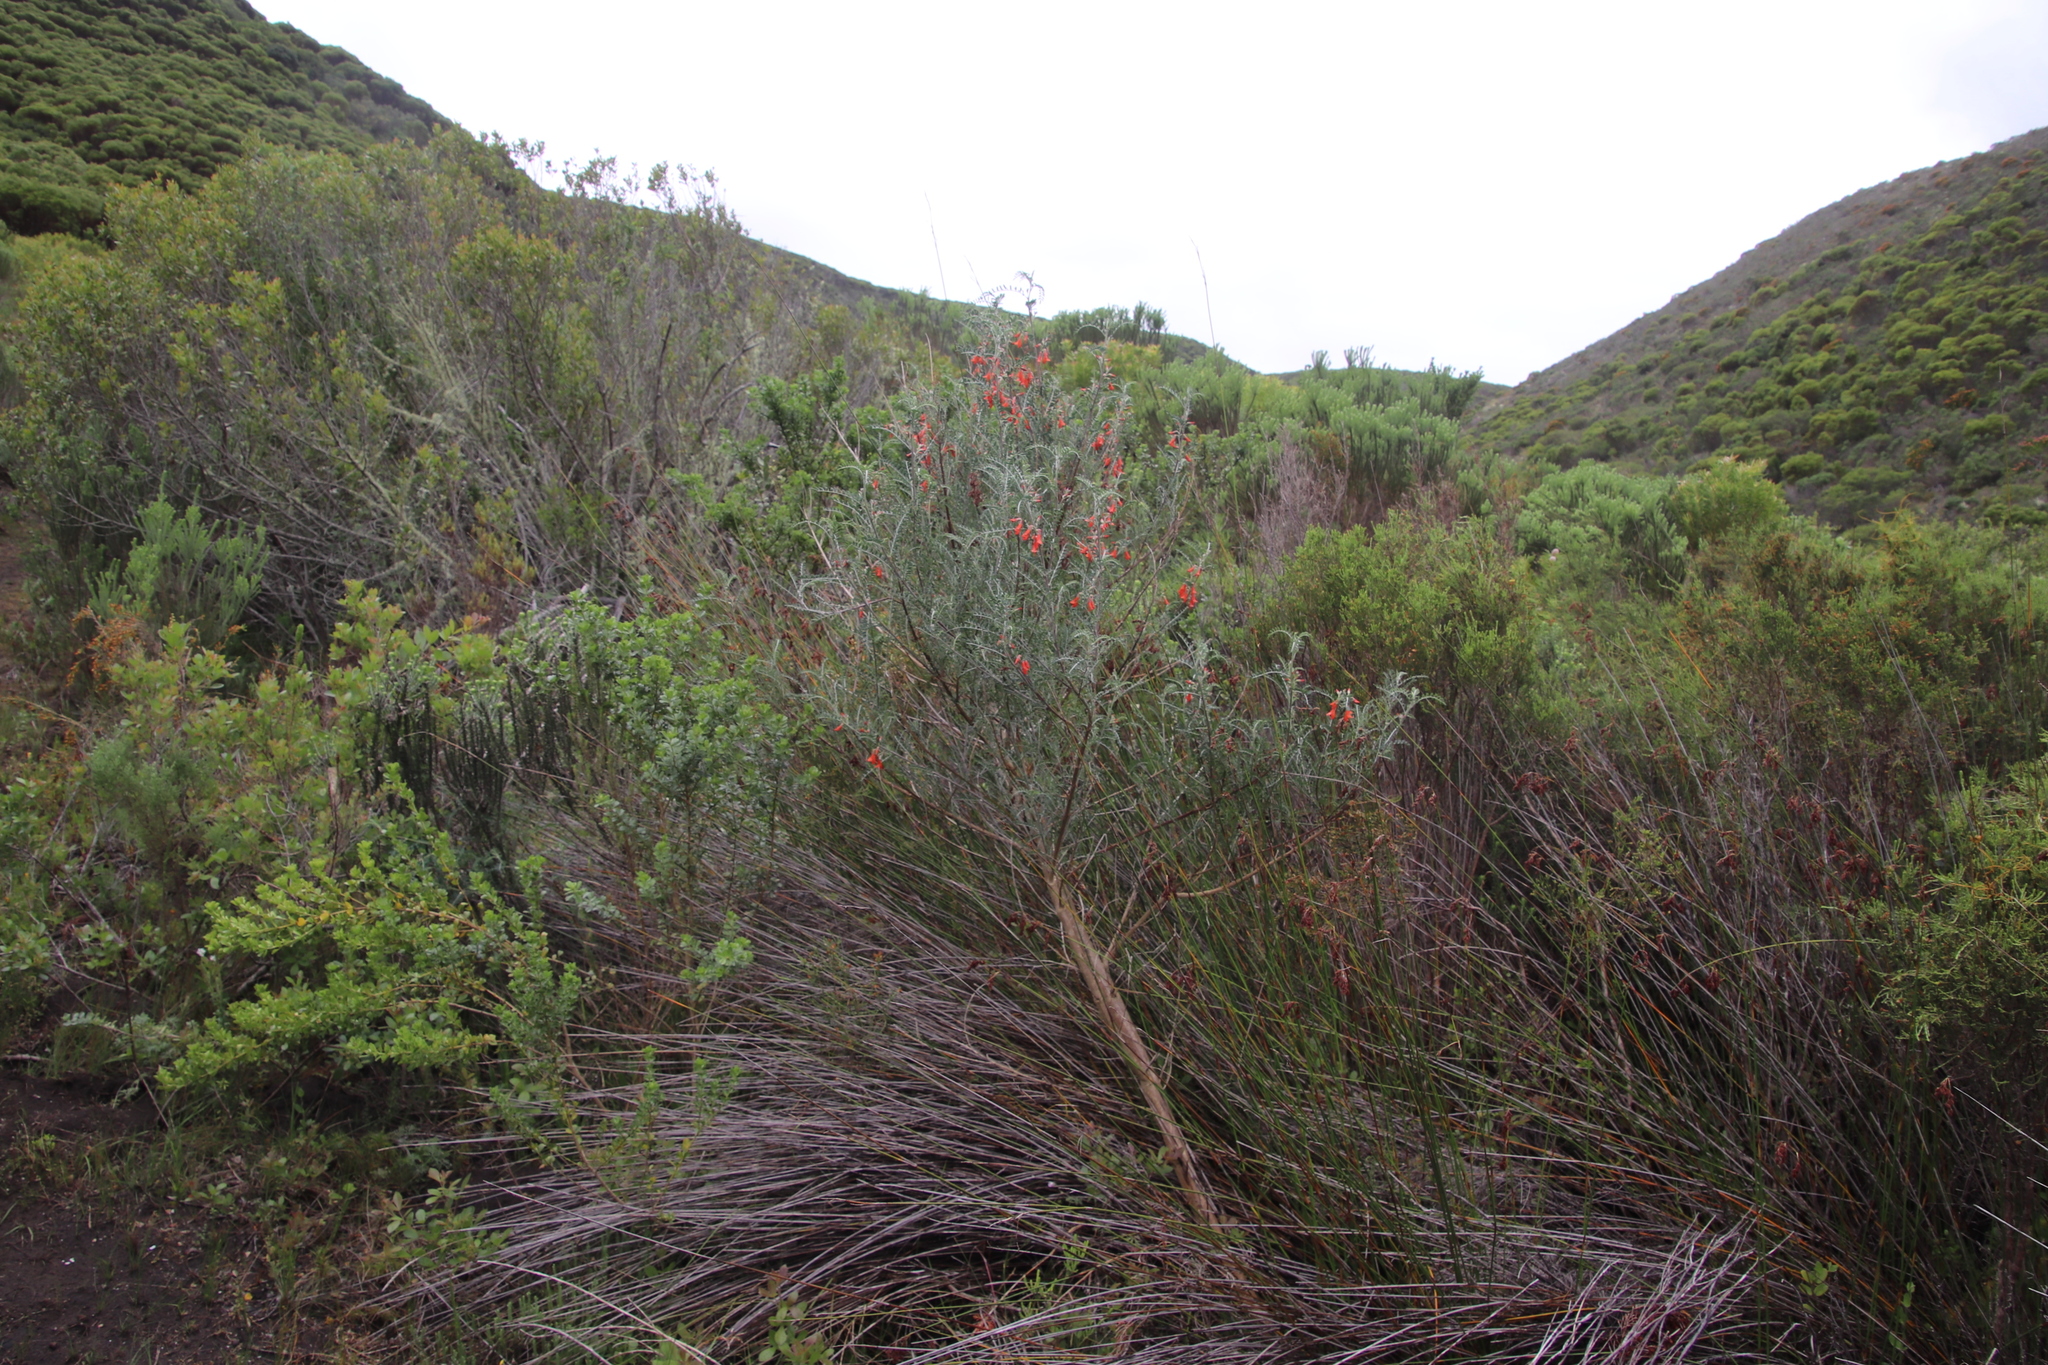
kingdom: Plantae
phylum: Tracheophyta
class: Magnoliopsida
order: Fabales
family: Fabaceae
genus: Lessertia
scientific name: Lessertia frutescens
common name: Balloon-pea
